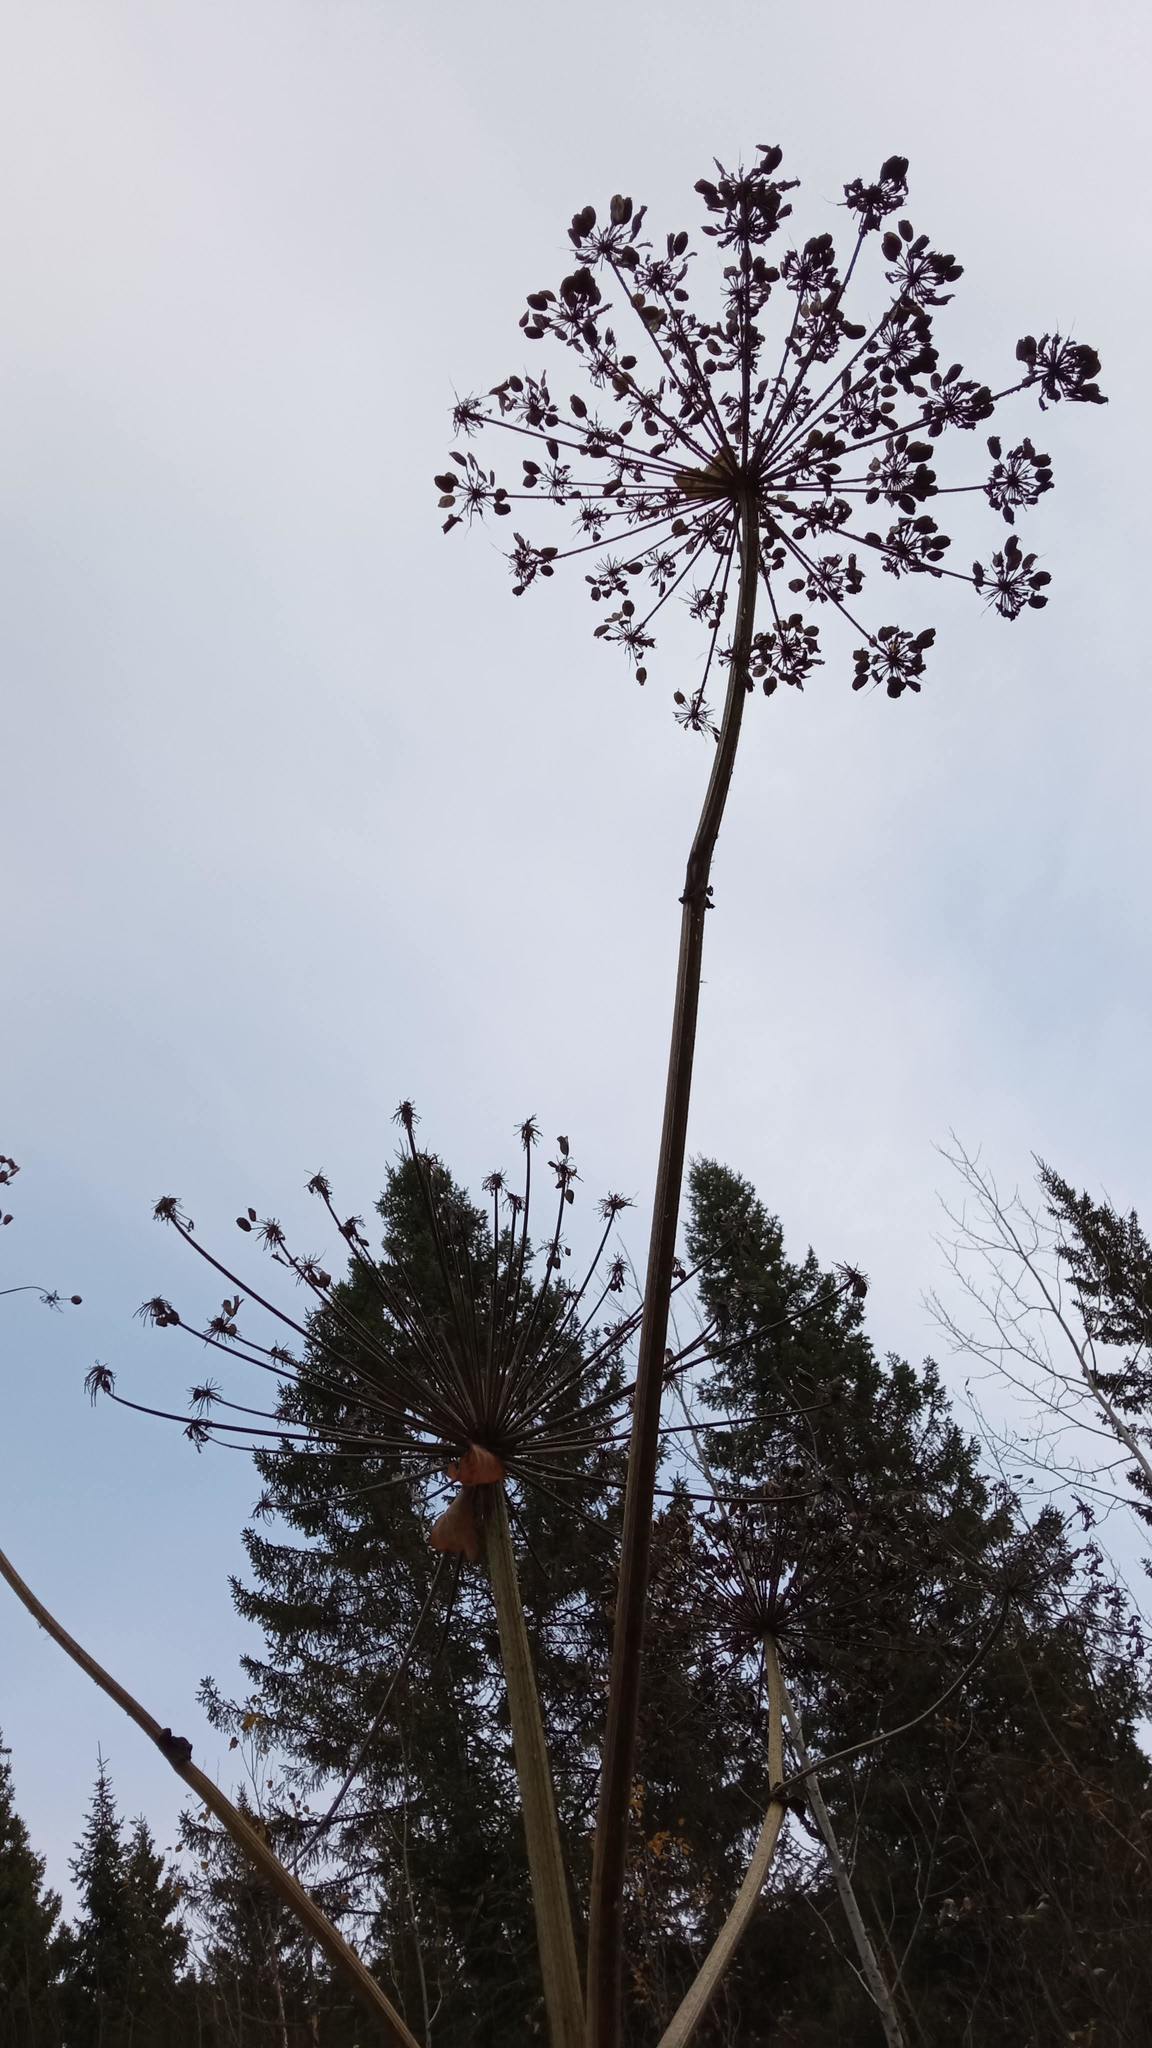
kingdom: Plantae
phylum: Tracheophyta
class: Magnoliopsida
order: Apiales
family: Apiaceae
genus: Heracleum
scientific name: Heracleum sphondylium
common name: Hogweed
